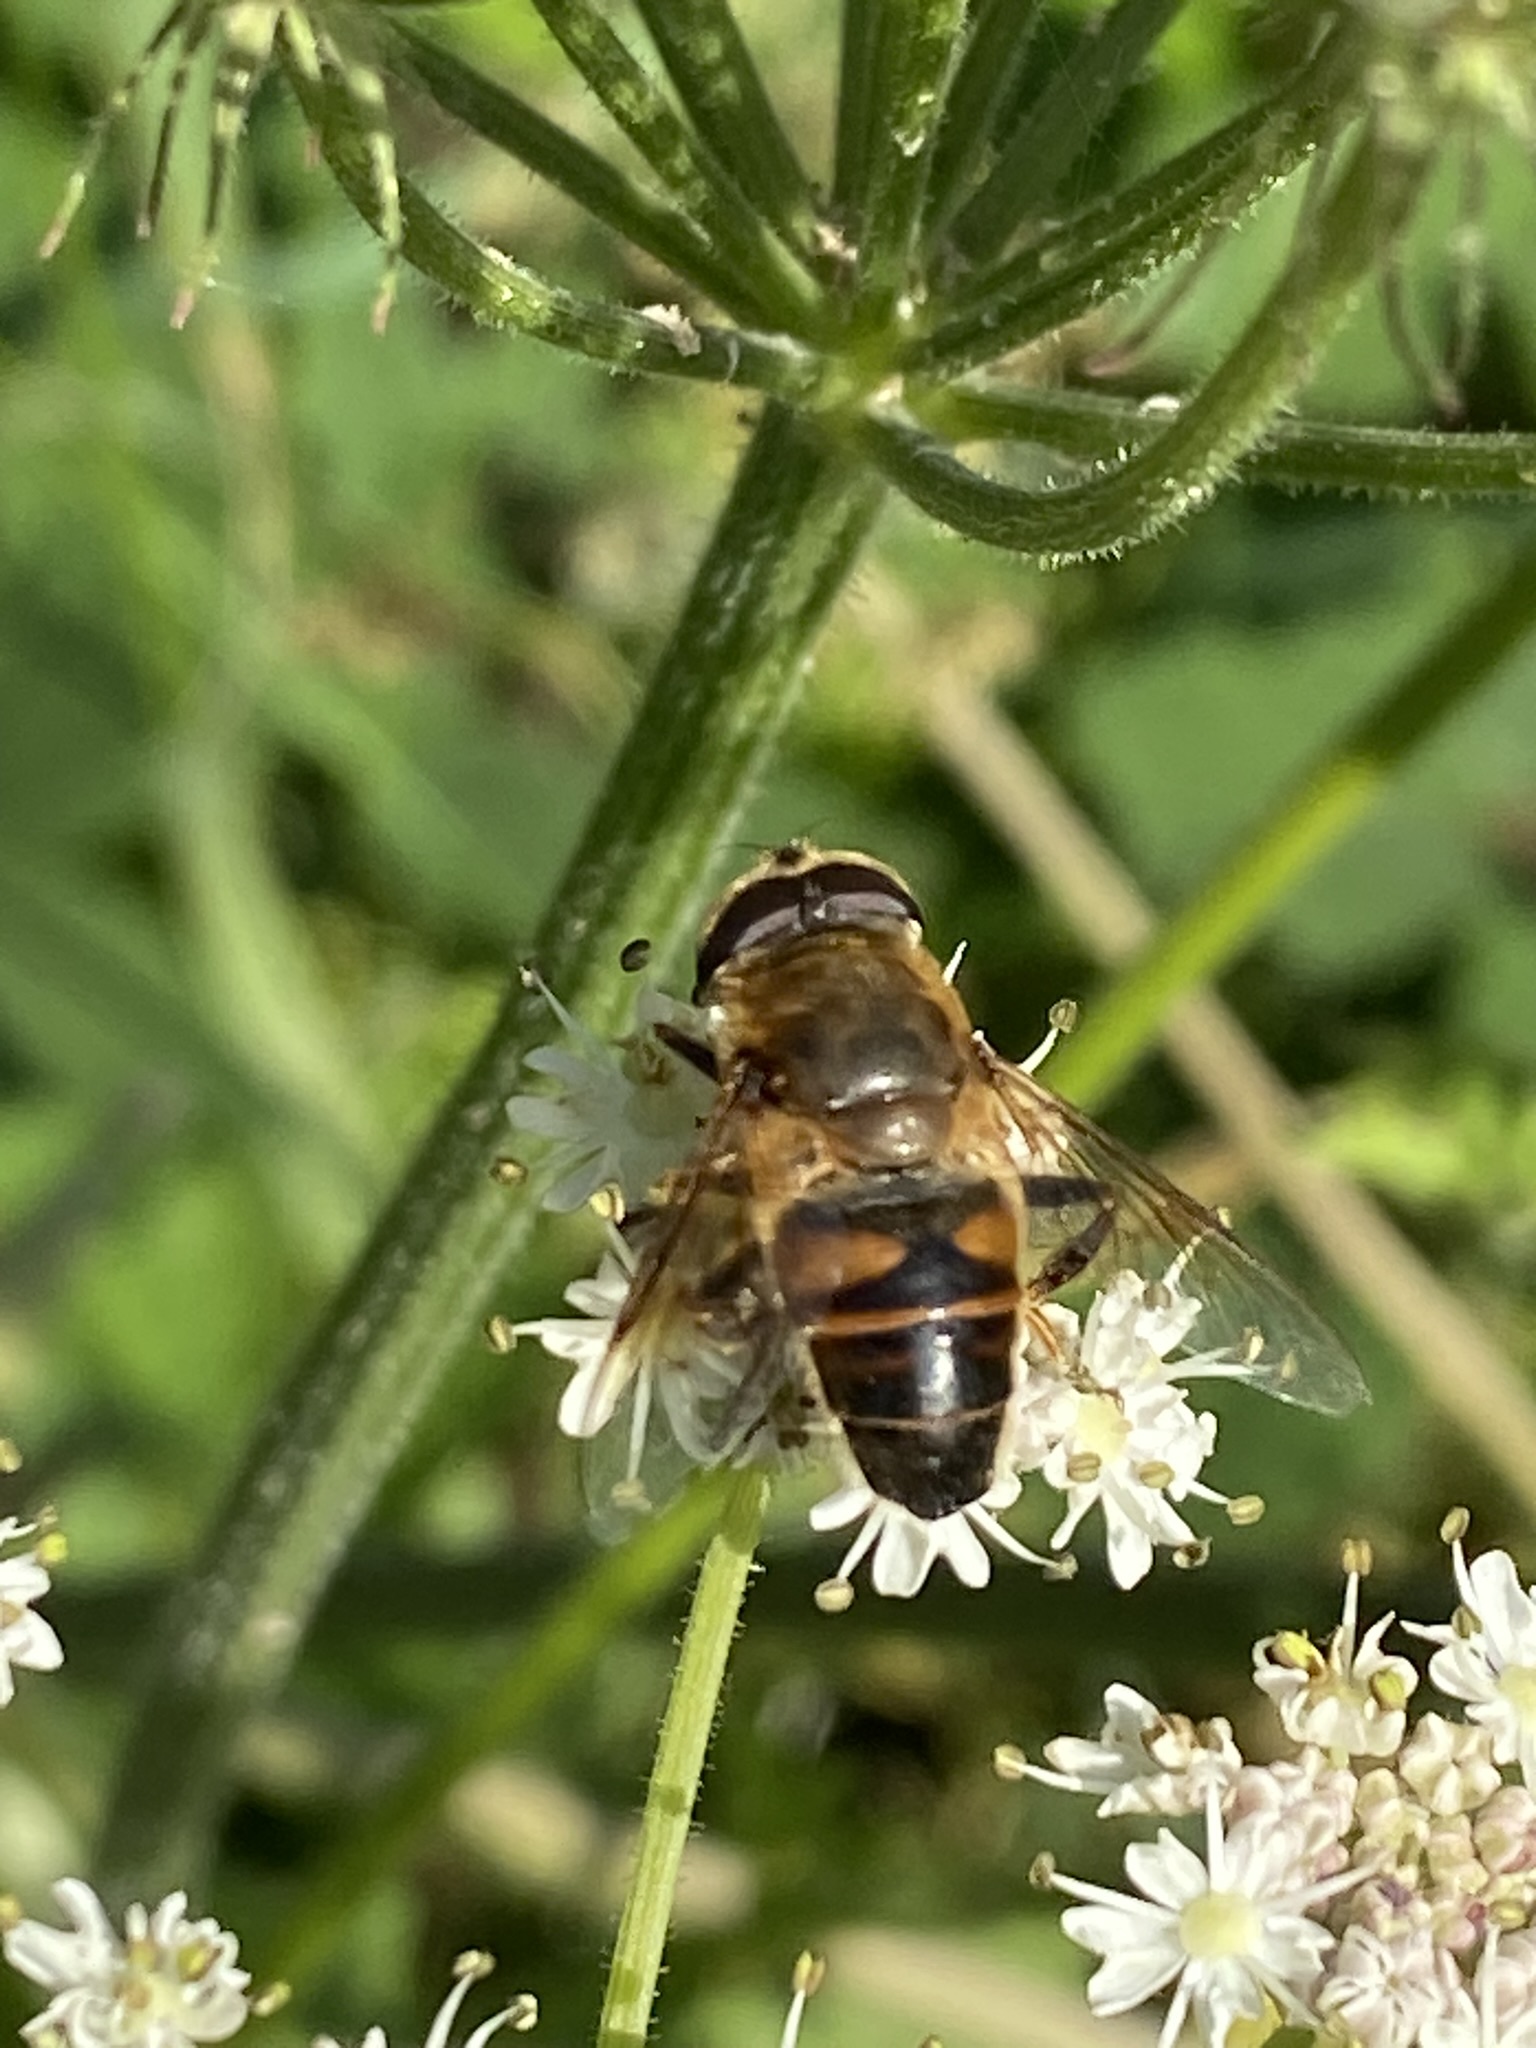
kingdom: Animalia
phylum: Arthropoda
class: Insecta
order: Diptera
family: Syrphidae
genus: Eristalis
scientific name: Eristalis tenax
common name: Drone fly
